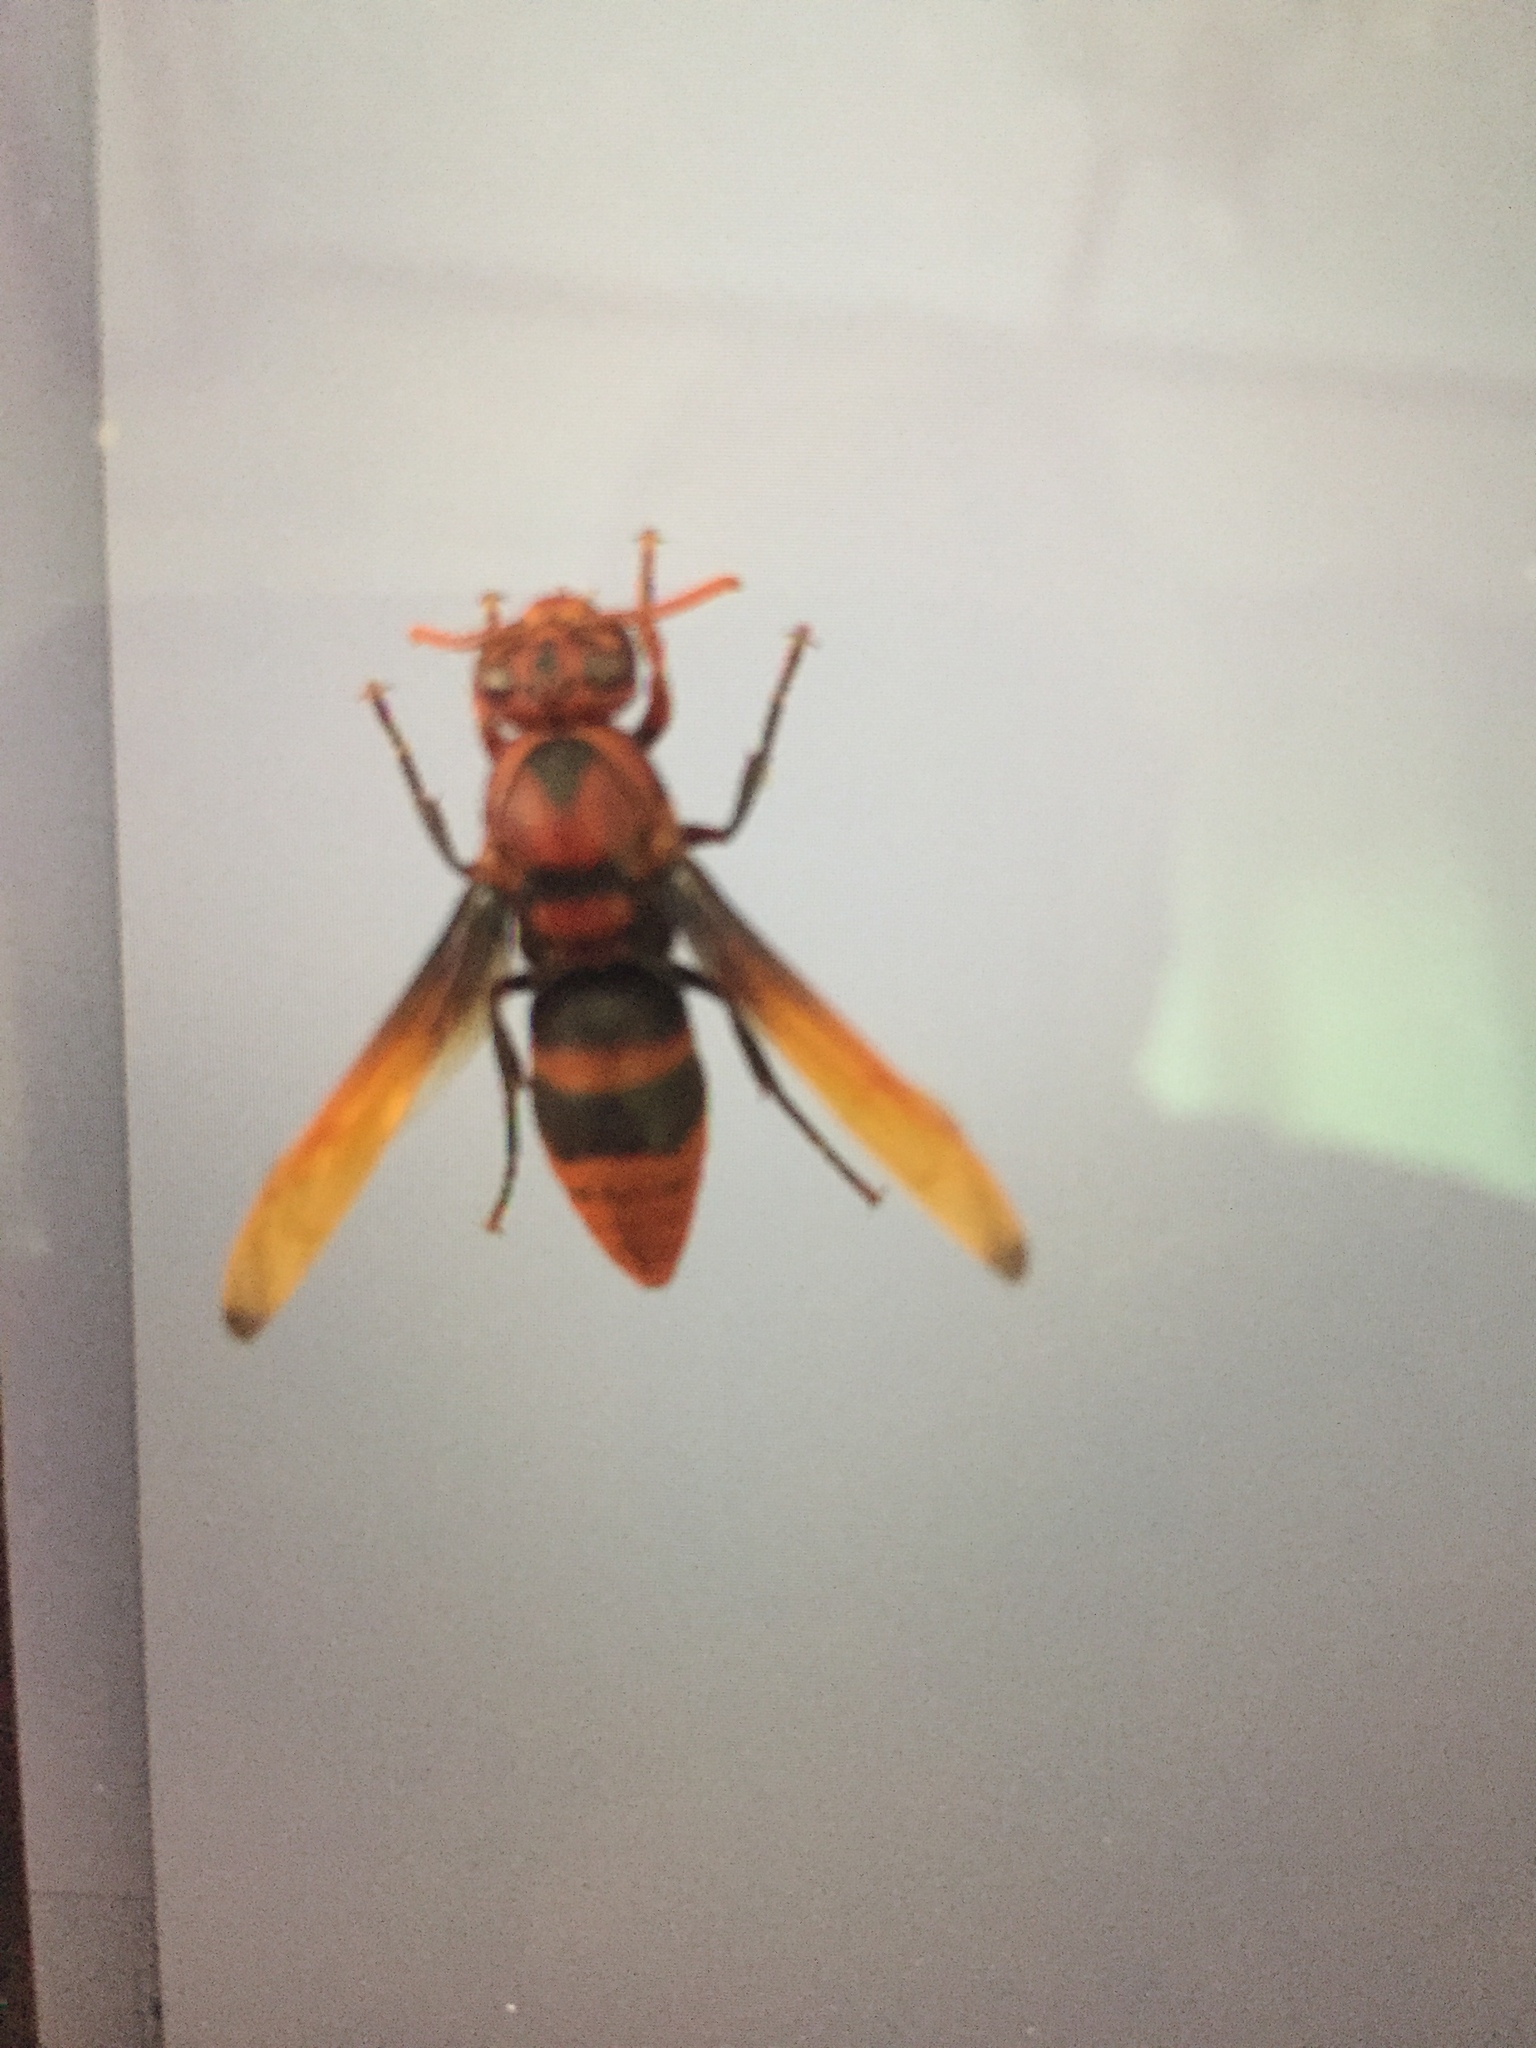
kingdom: Animalia
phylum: Arthropoda
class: Insecta
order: Hymenoptera
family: Eumenidae
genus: Rhynchium
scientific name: Rhynchium quinquecinctum
